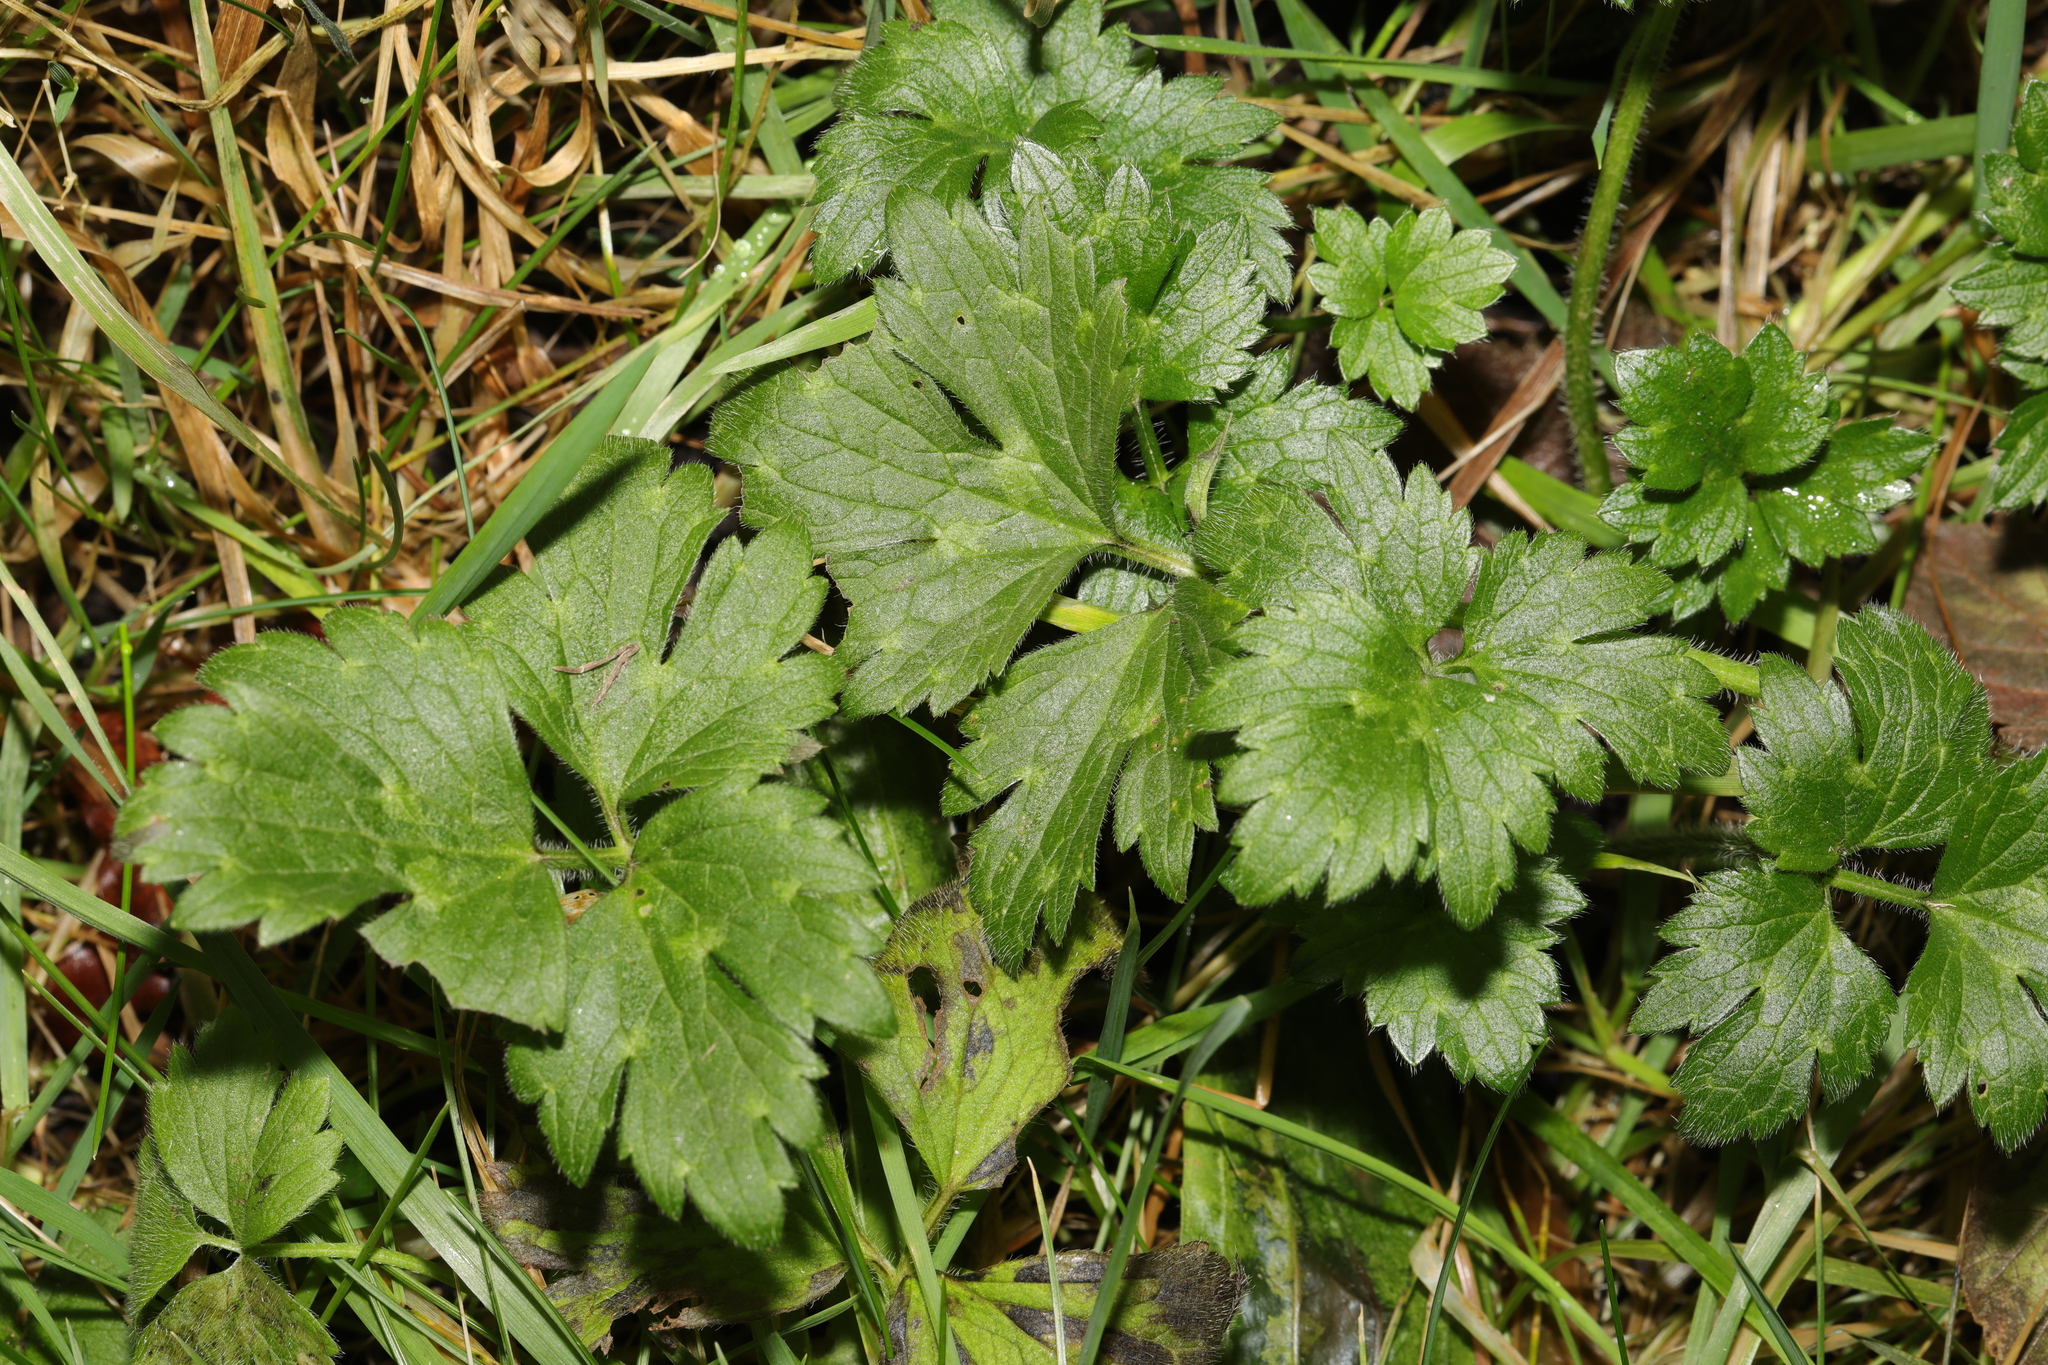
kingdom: Plantae
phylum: Tracheophyta
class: Magnoliopsida
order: Ranunculales
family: Ranunculaceae
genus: Ranunculus
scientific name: Ranunculus repens
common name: Creeping buttercup
